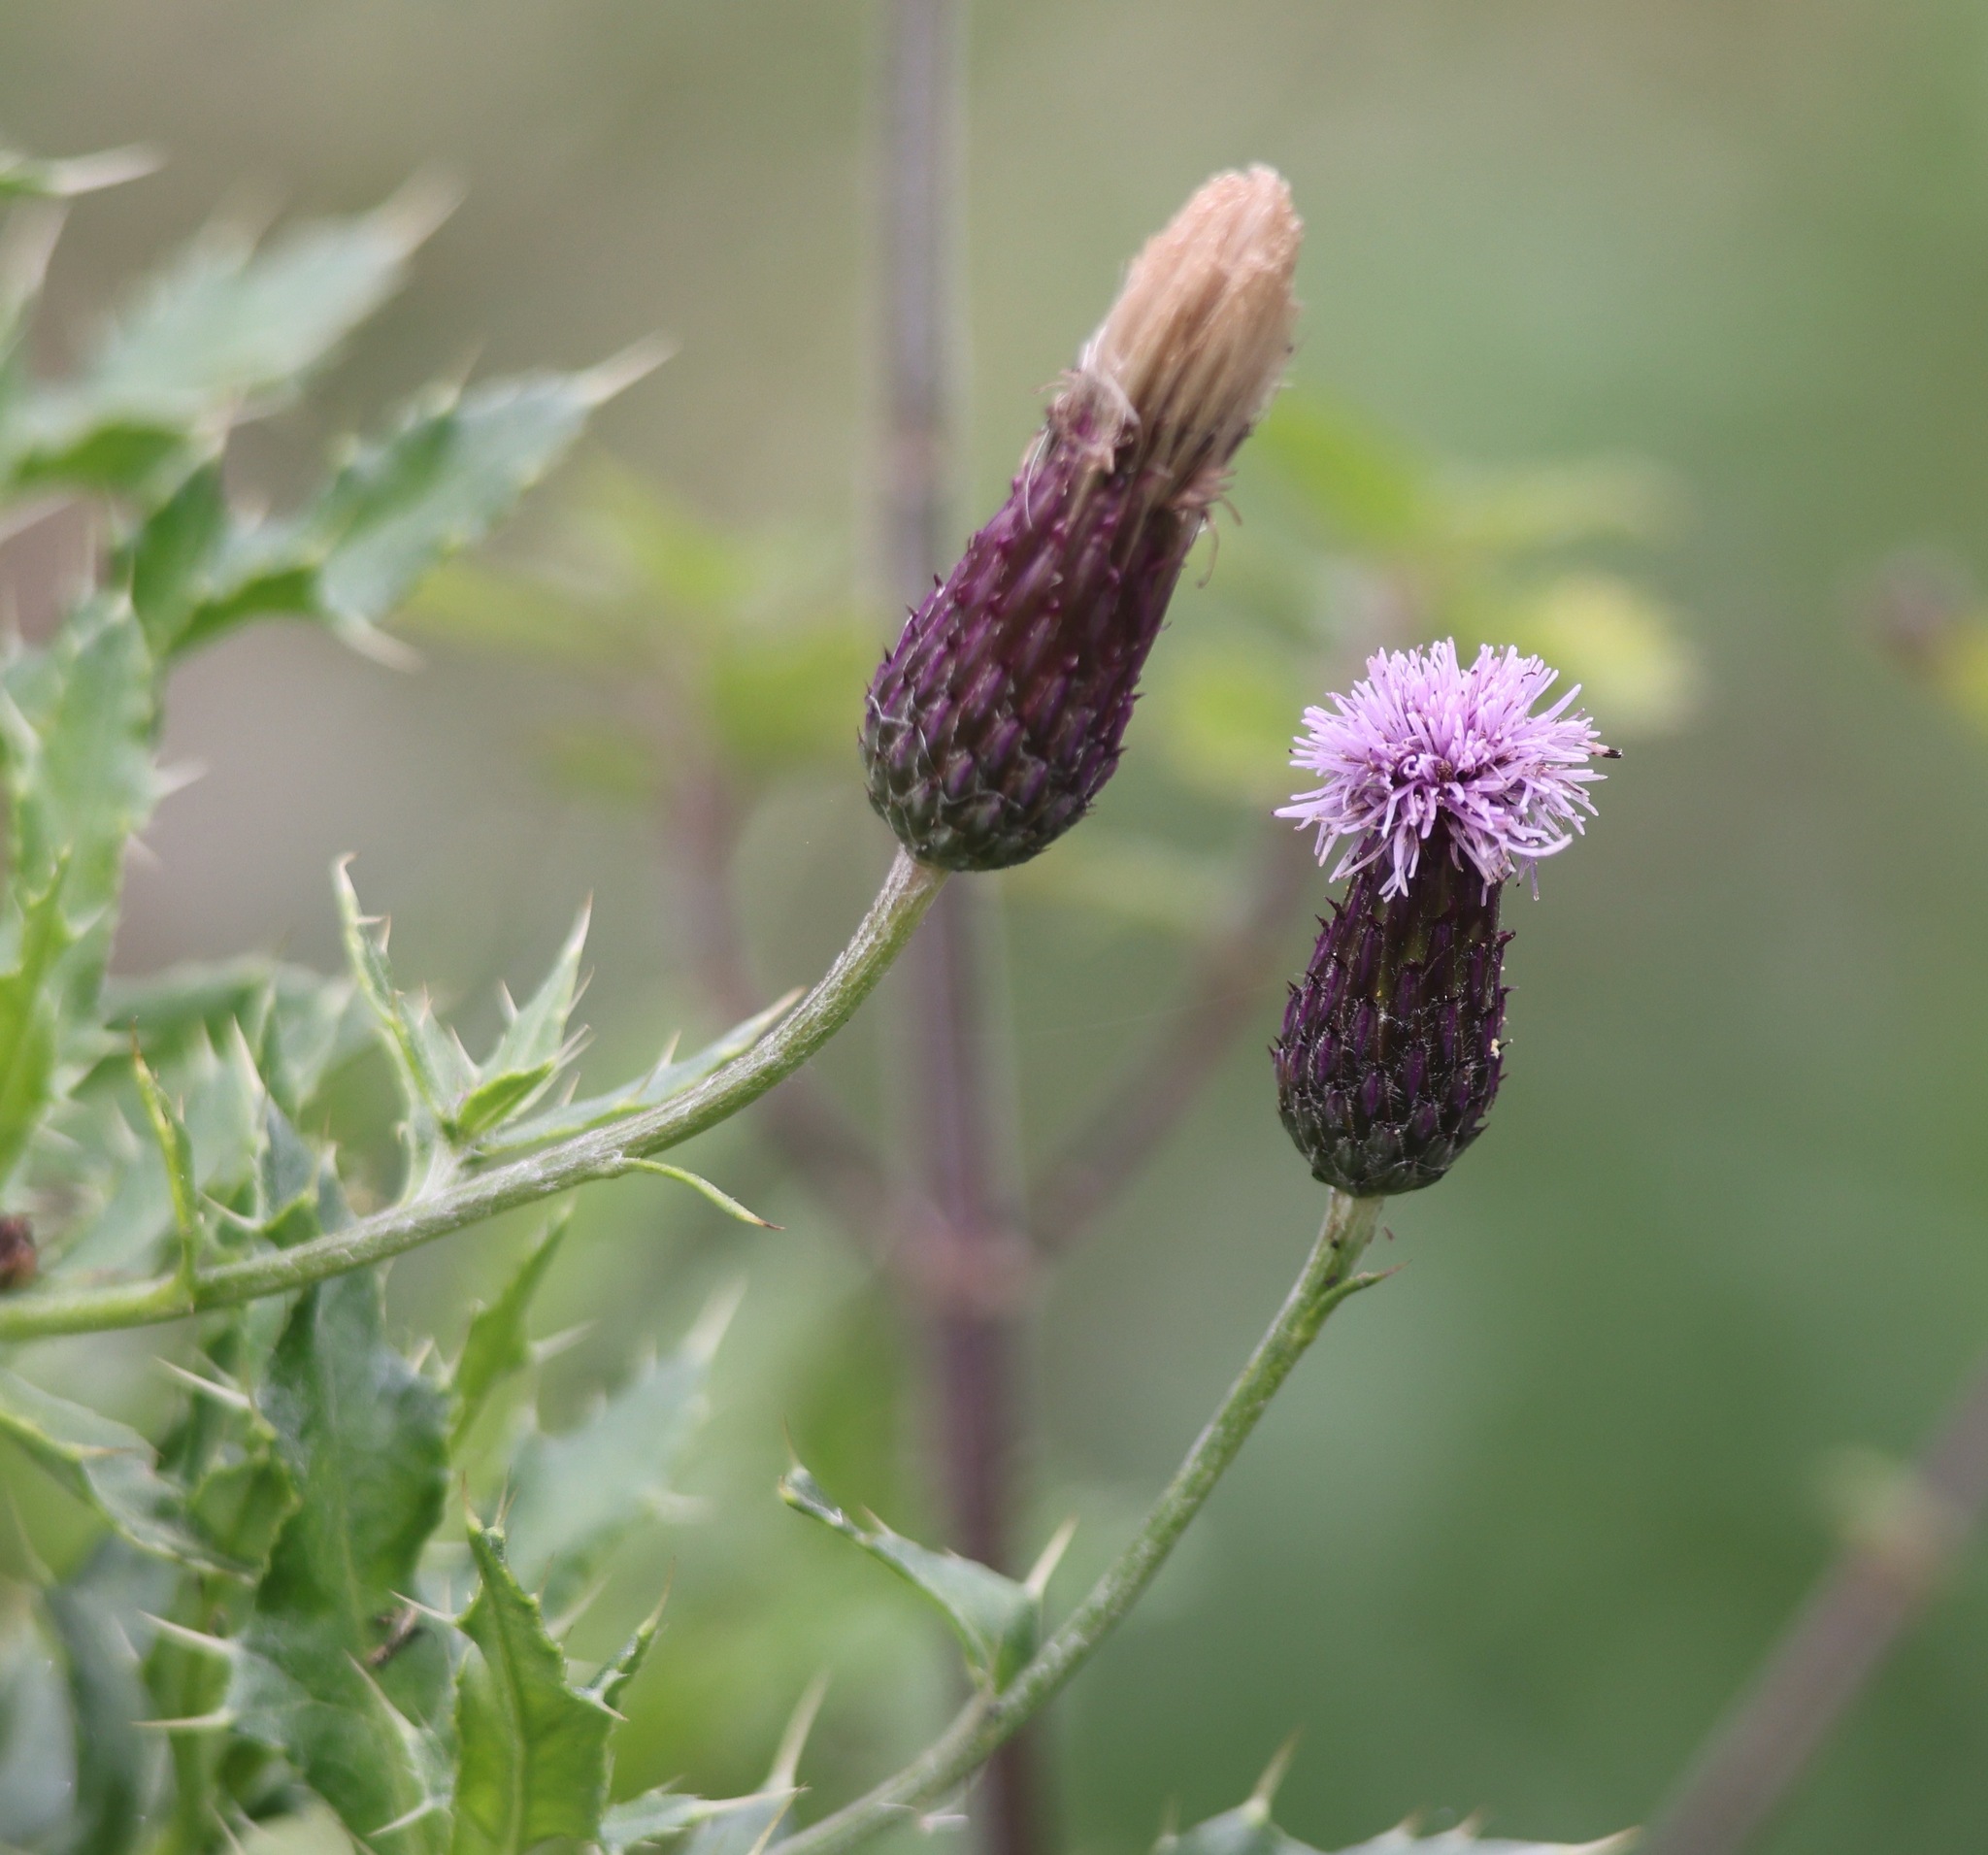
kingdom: Plantae
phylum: Tracheophyta
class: Magnoliopsida
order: Asterales
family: Asteraceae
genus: Cirsium
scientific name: Cirsium arvense
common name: Creeping thistle
